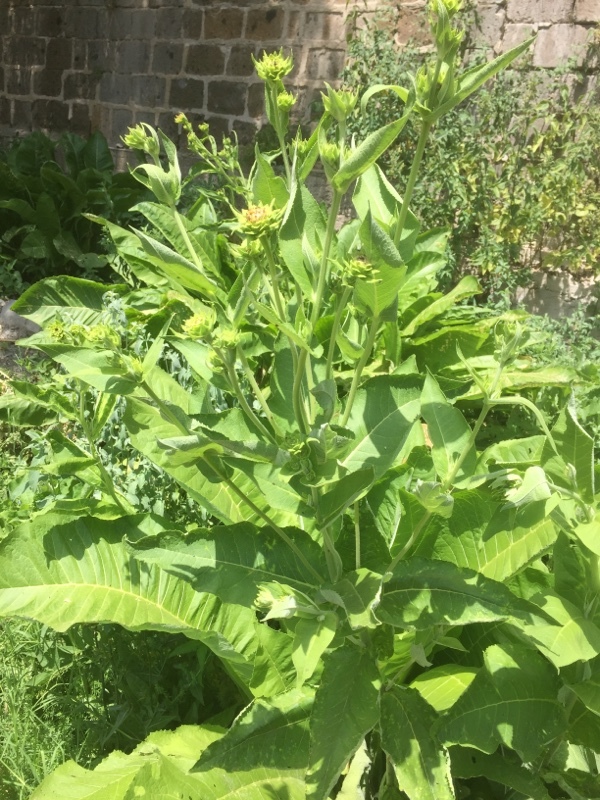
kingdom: Plantae
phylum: Tracheophyta
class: Magnoliopsida
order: Asterales
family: Asteraceae
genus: Inula
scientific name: Inula helenium
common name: Elecampane
